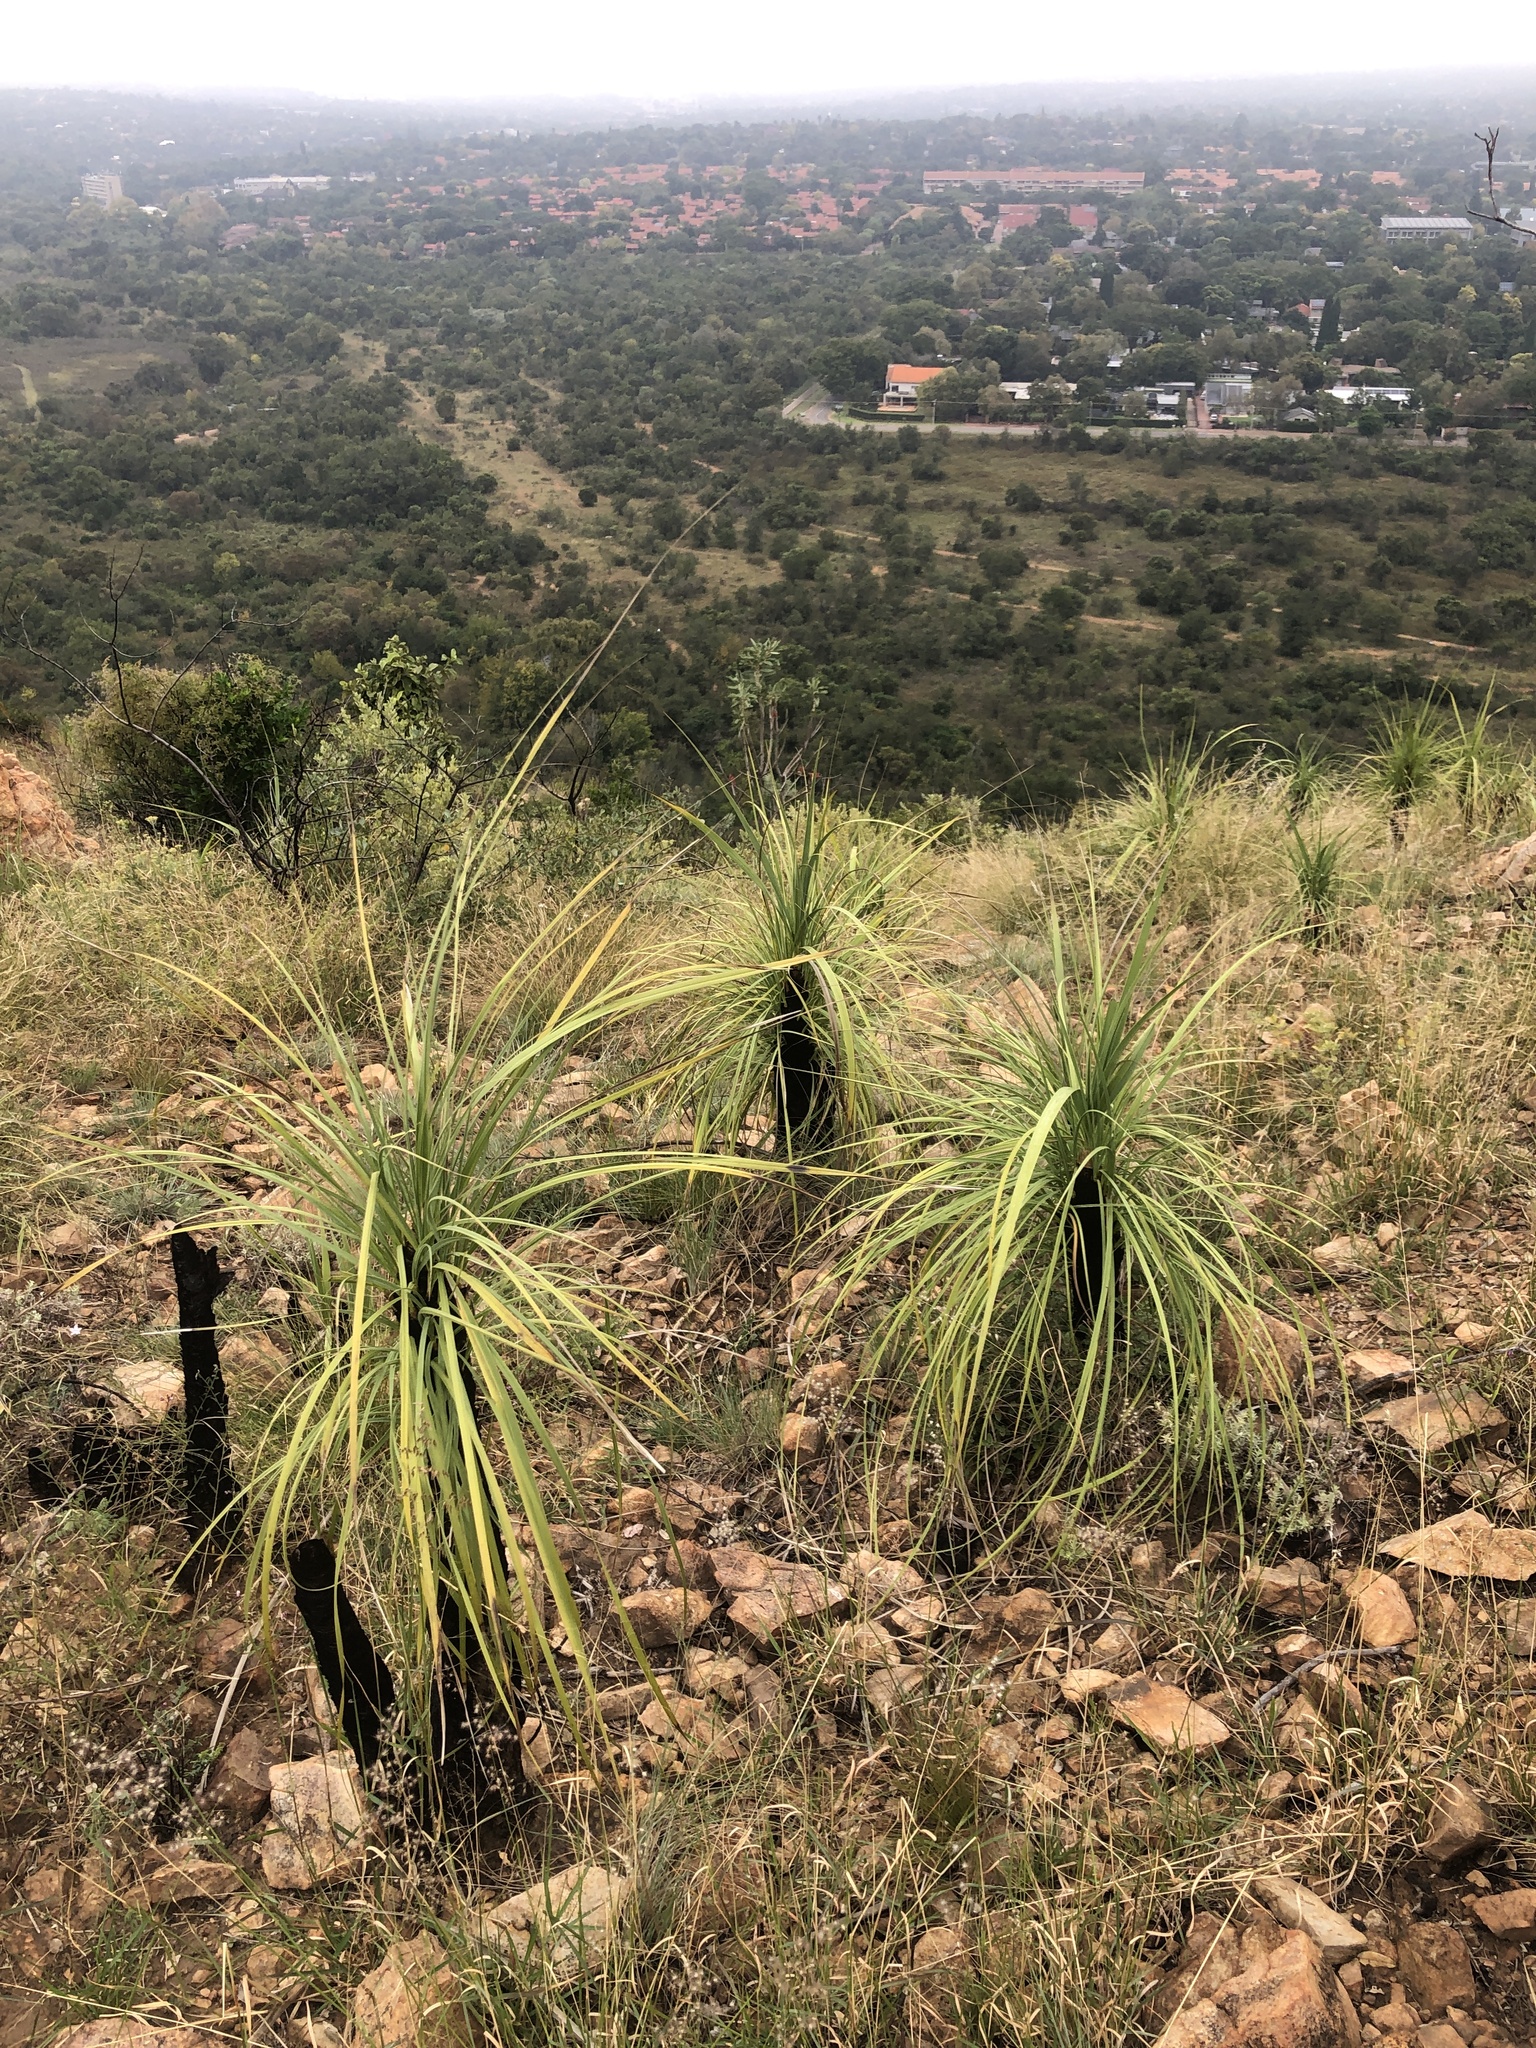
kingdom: Plantae
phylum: Tracheophyta
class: Liliopsida
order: Pandanales
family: Velloziaceae
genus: Xerophyta
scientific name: Xerophyta retinervis
